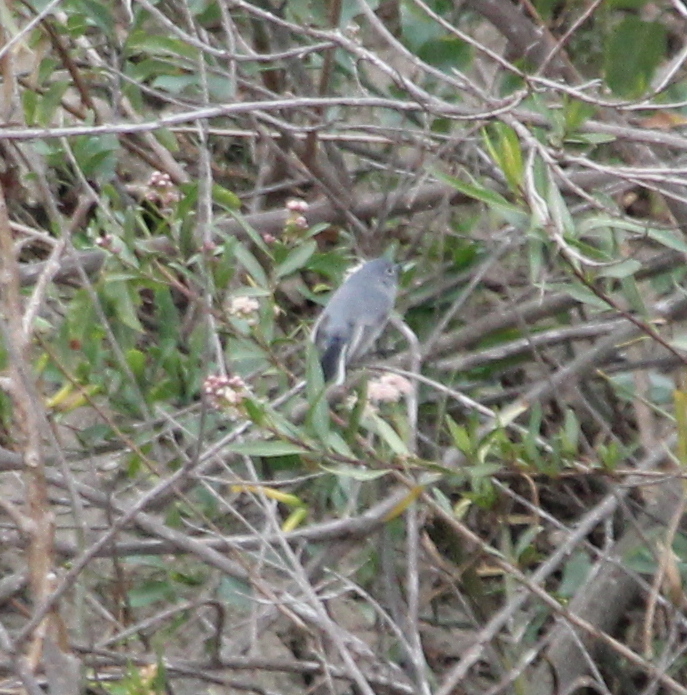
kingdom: Animalia
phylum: Chordata
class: Aves
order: Passeriformes
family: Polioptilidae
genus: Polioptila
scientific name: Polioptila caerulea
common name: Blue-gray gnatcatcher
